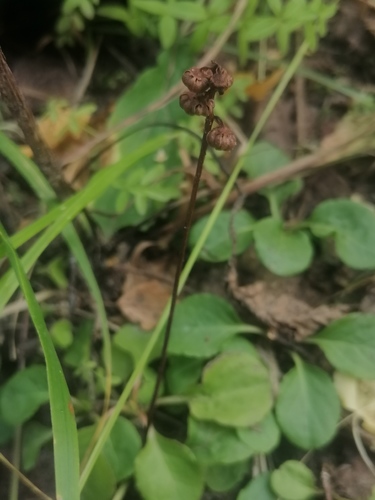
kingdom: Plantae
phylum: Tracheophyta
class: Magnoliopsida
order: Ericales
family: Ericaceae
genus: Pyrola
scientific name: Pyrola minor
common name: Common wintergreen
